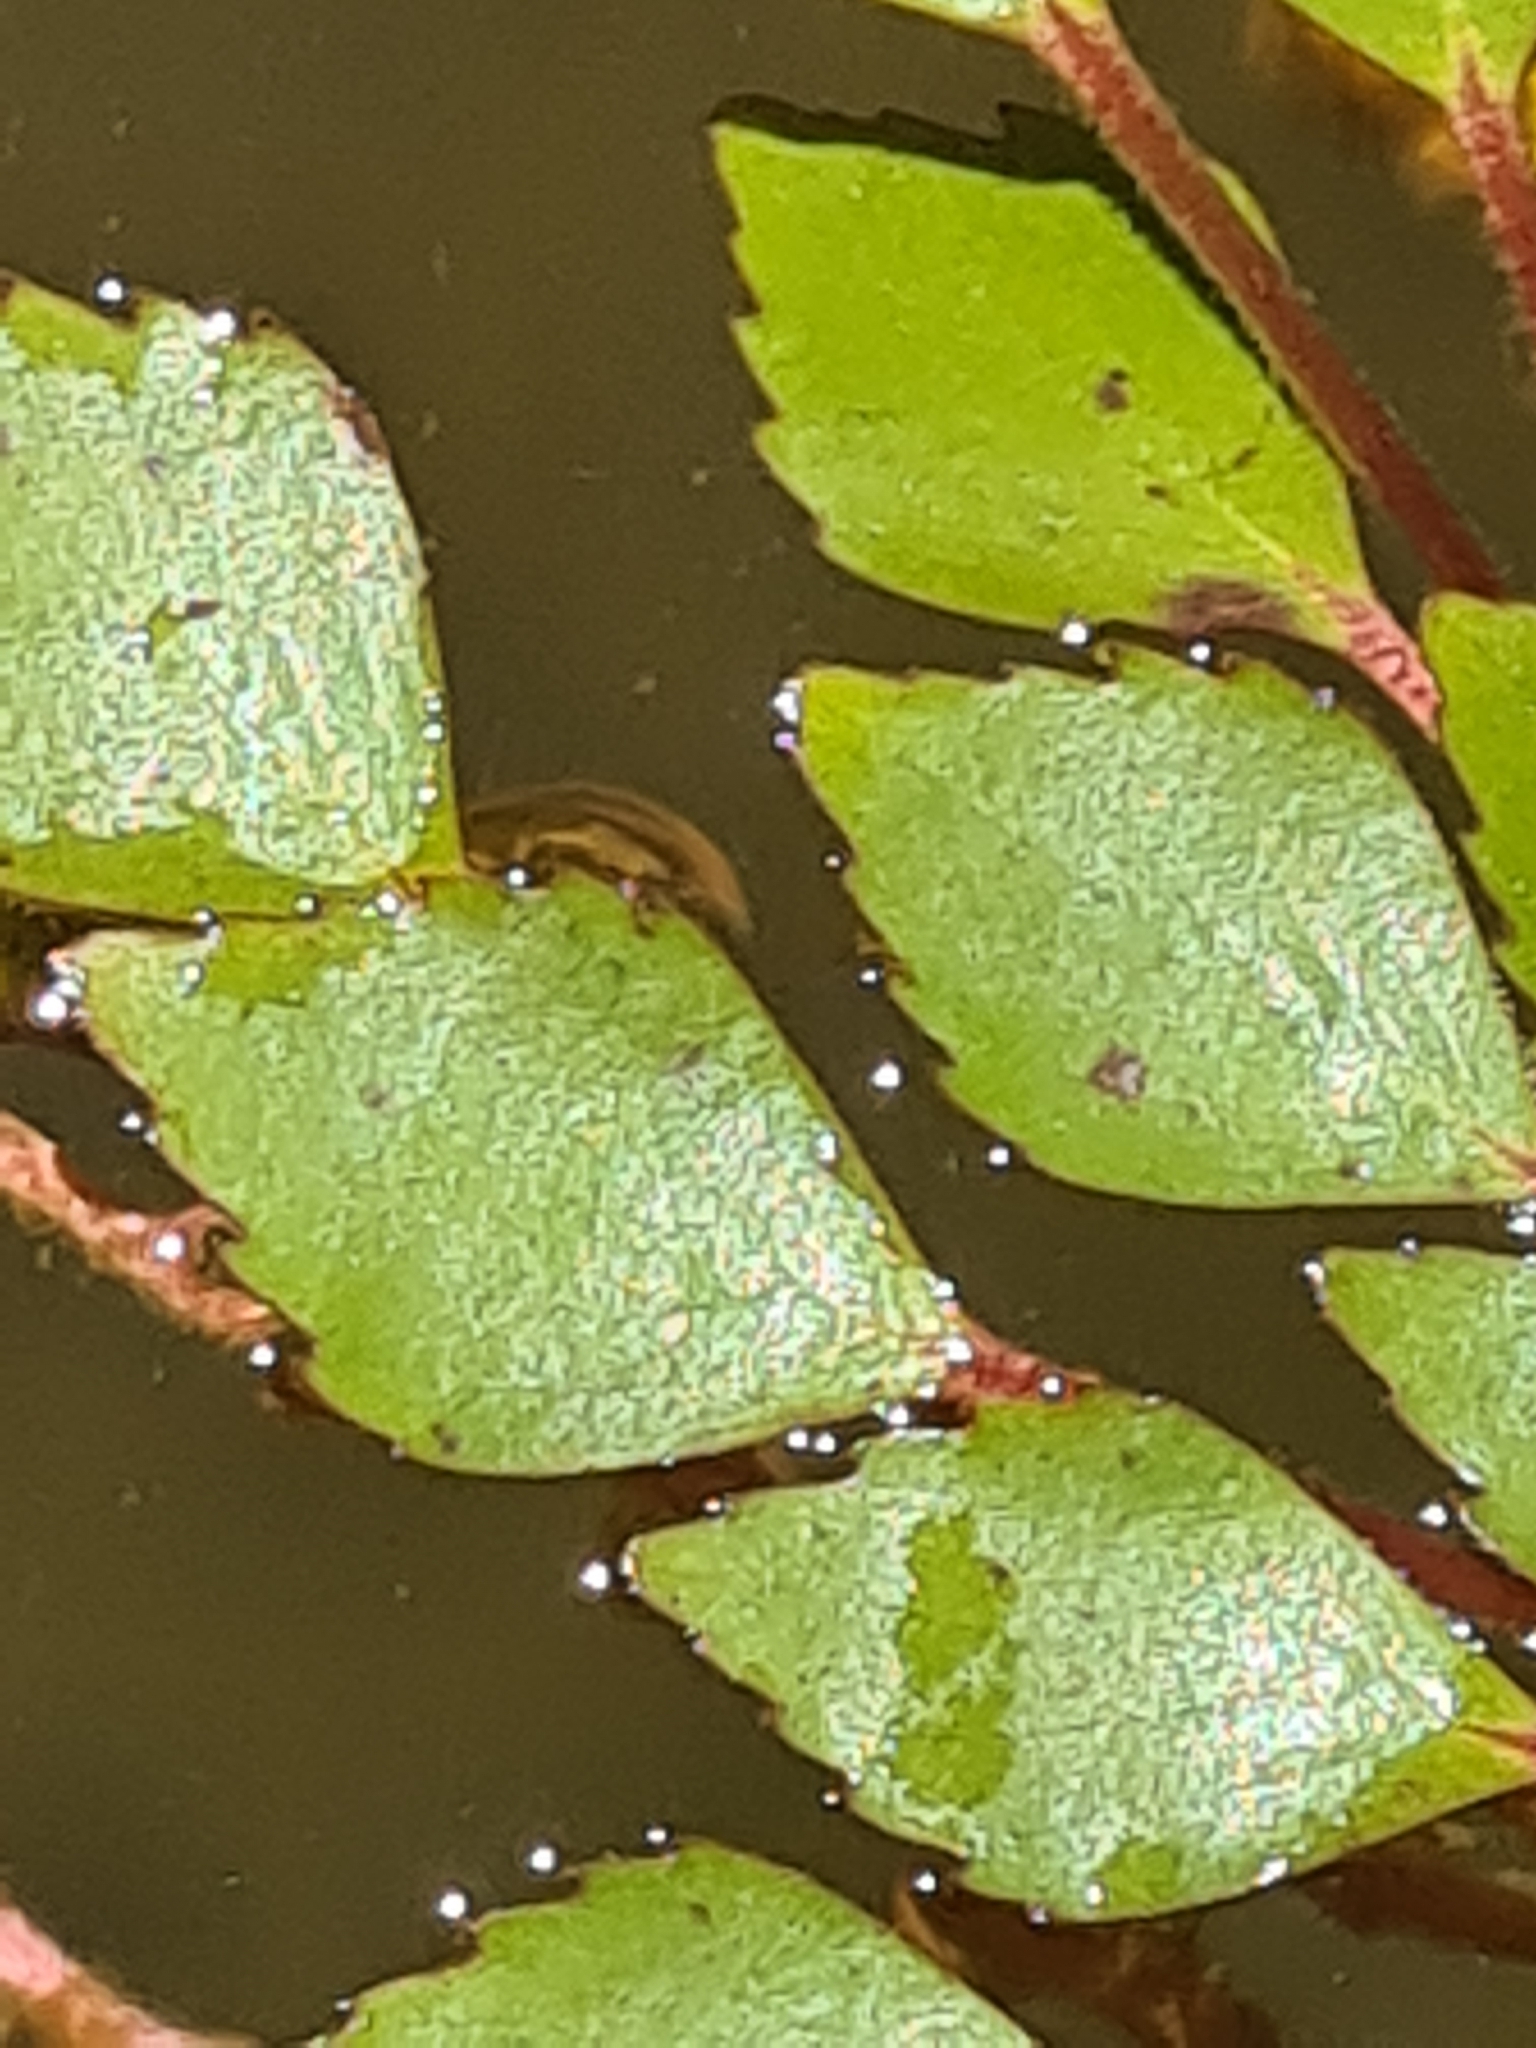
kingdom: Plantae
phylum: Tracheophyta
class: Magnoliopsida
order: Myrtales
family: Onagraceae
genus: Ludwigia
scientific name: Ludwigia sedioides
